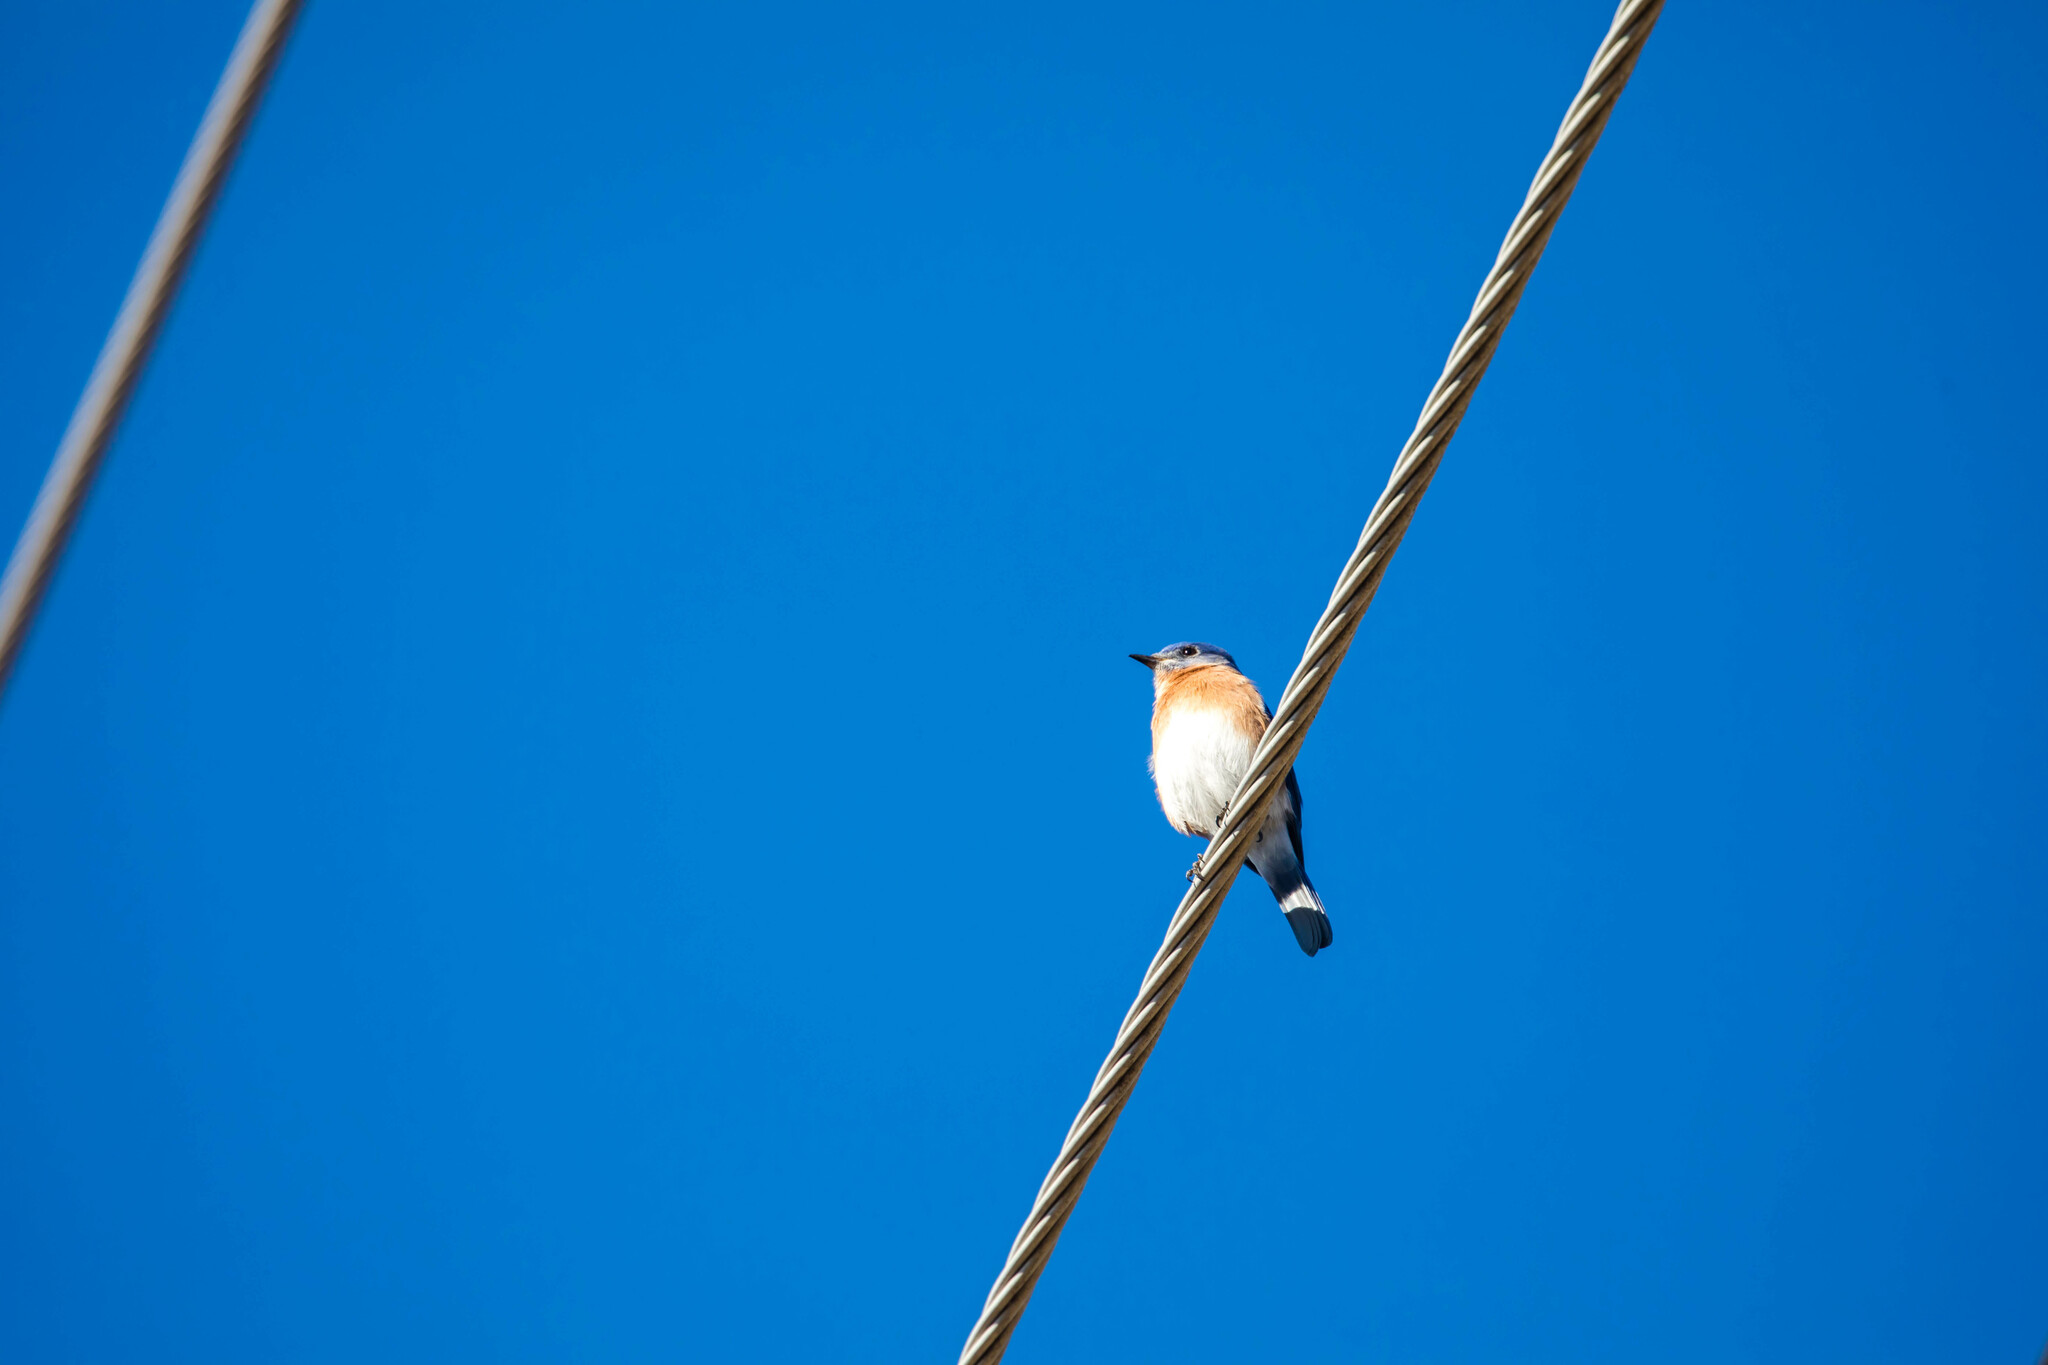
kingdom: Animalia
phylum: Chordata
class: Aves
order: Passeriformes
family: Turdidae
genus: Sialia
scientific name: Sialia sialis
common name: Eastern bluebird
